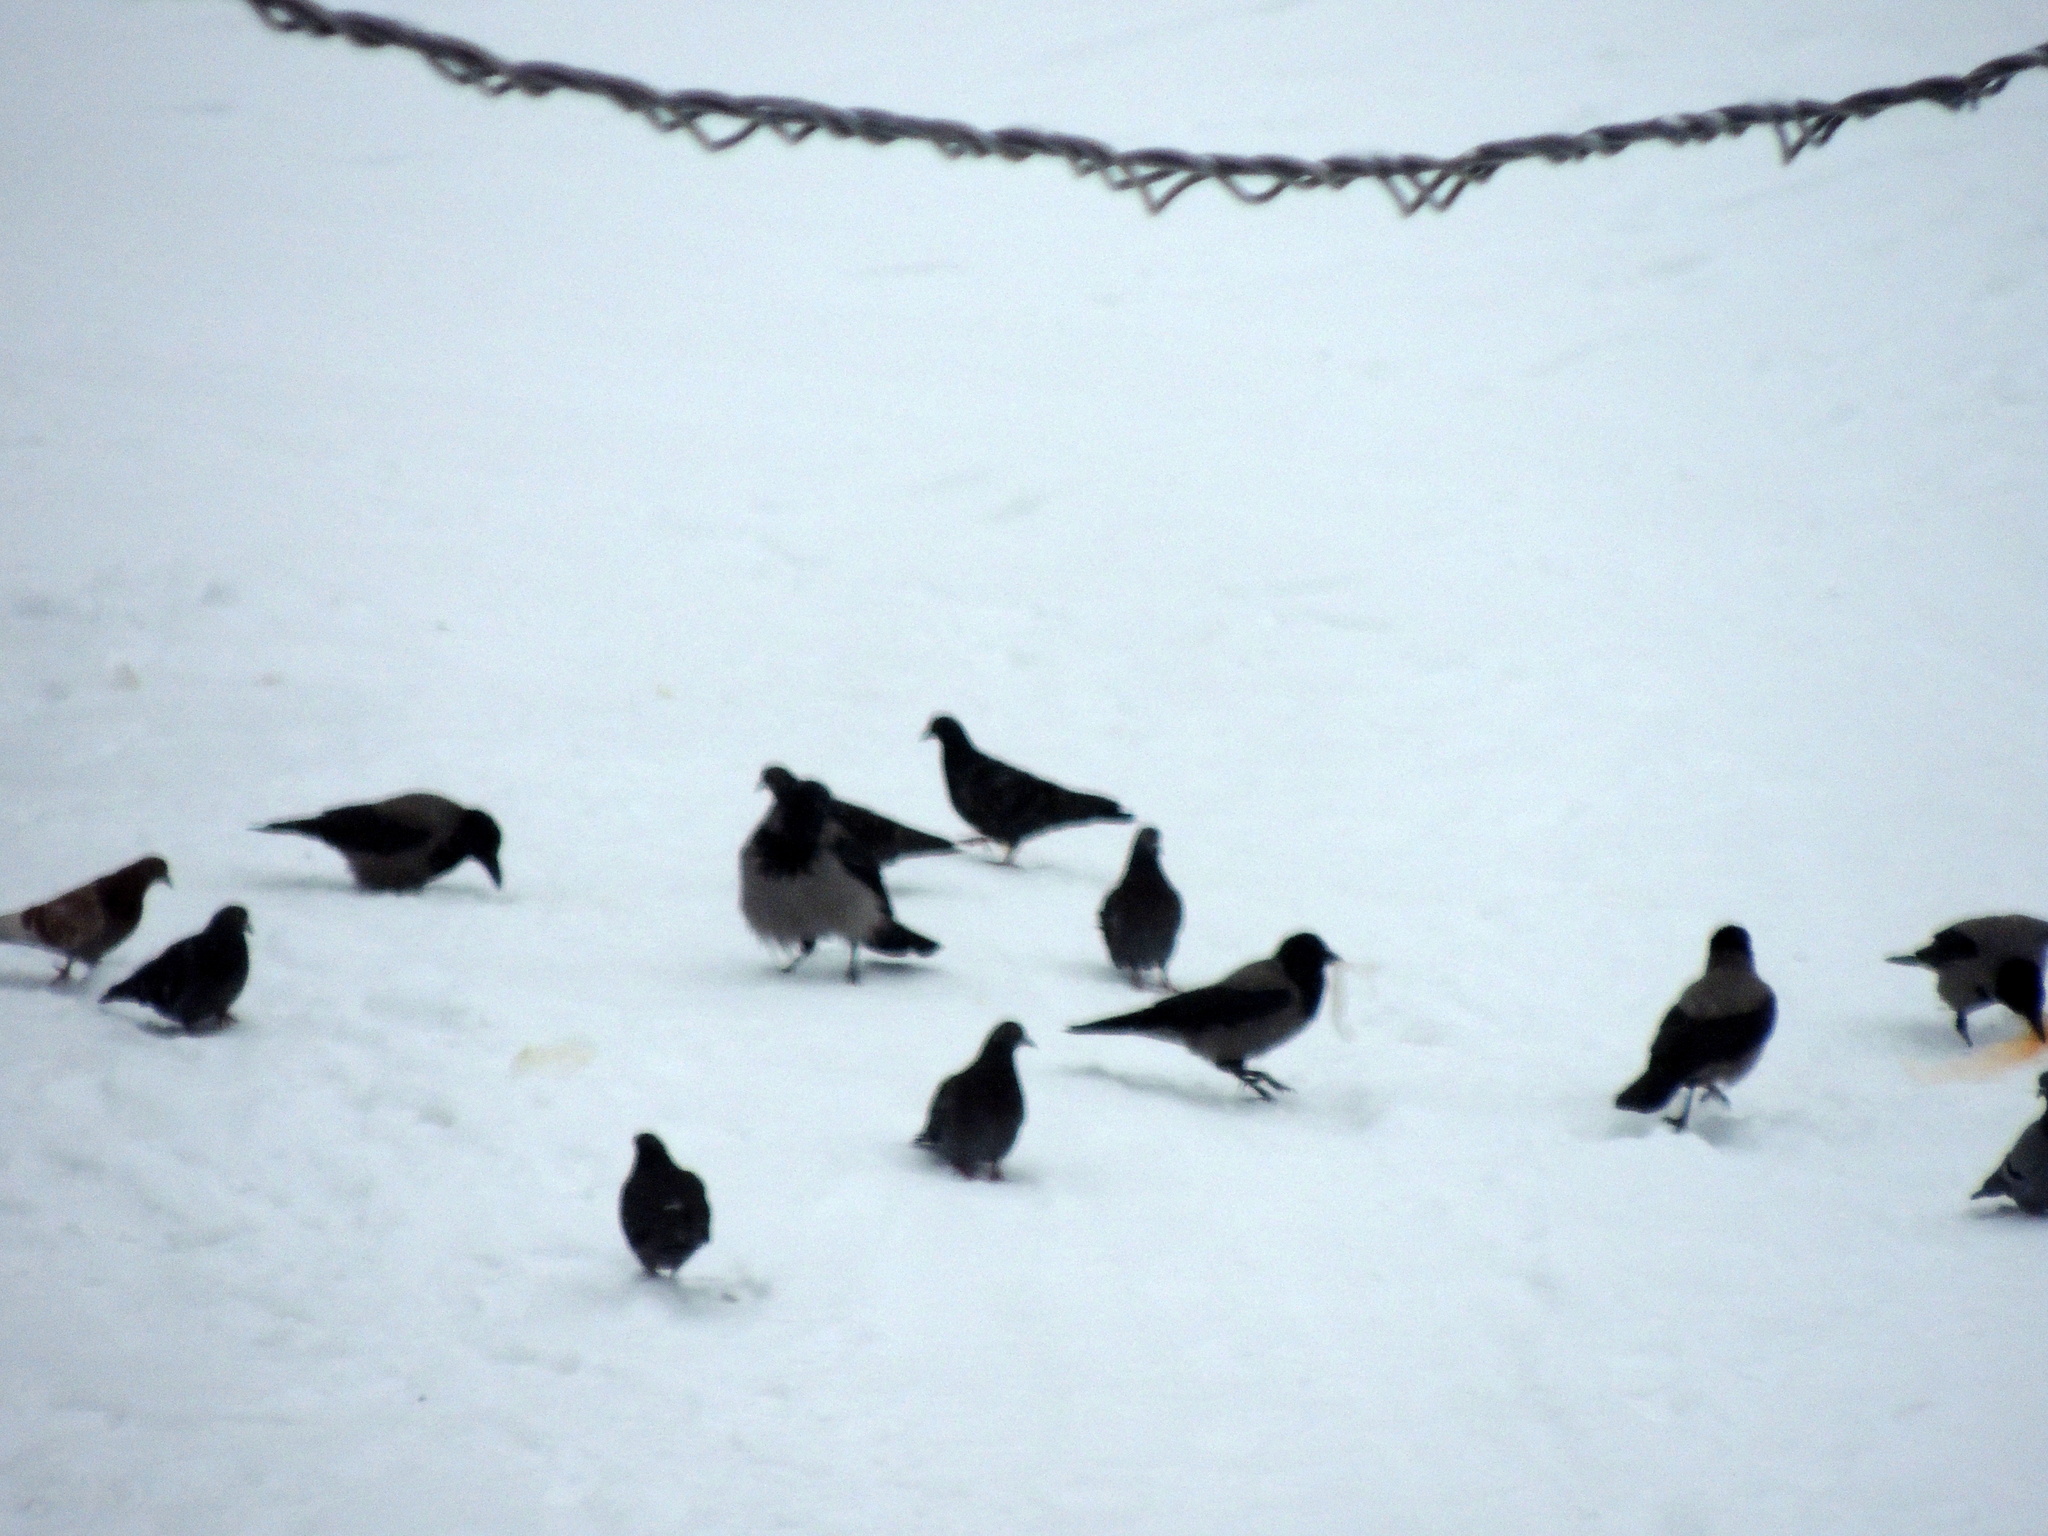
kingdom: Animalia
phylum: Chordata
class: Aves
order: Passeriformes
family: Corvidae
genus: Corvus
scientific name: Corvus cornix
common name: Hooded crow
